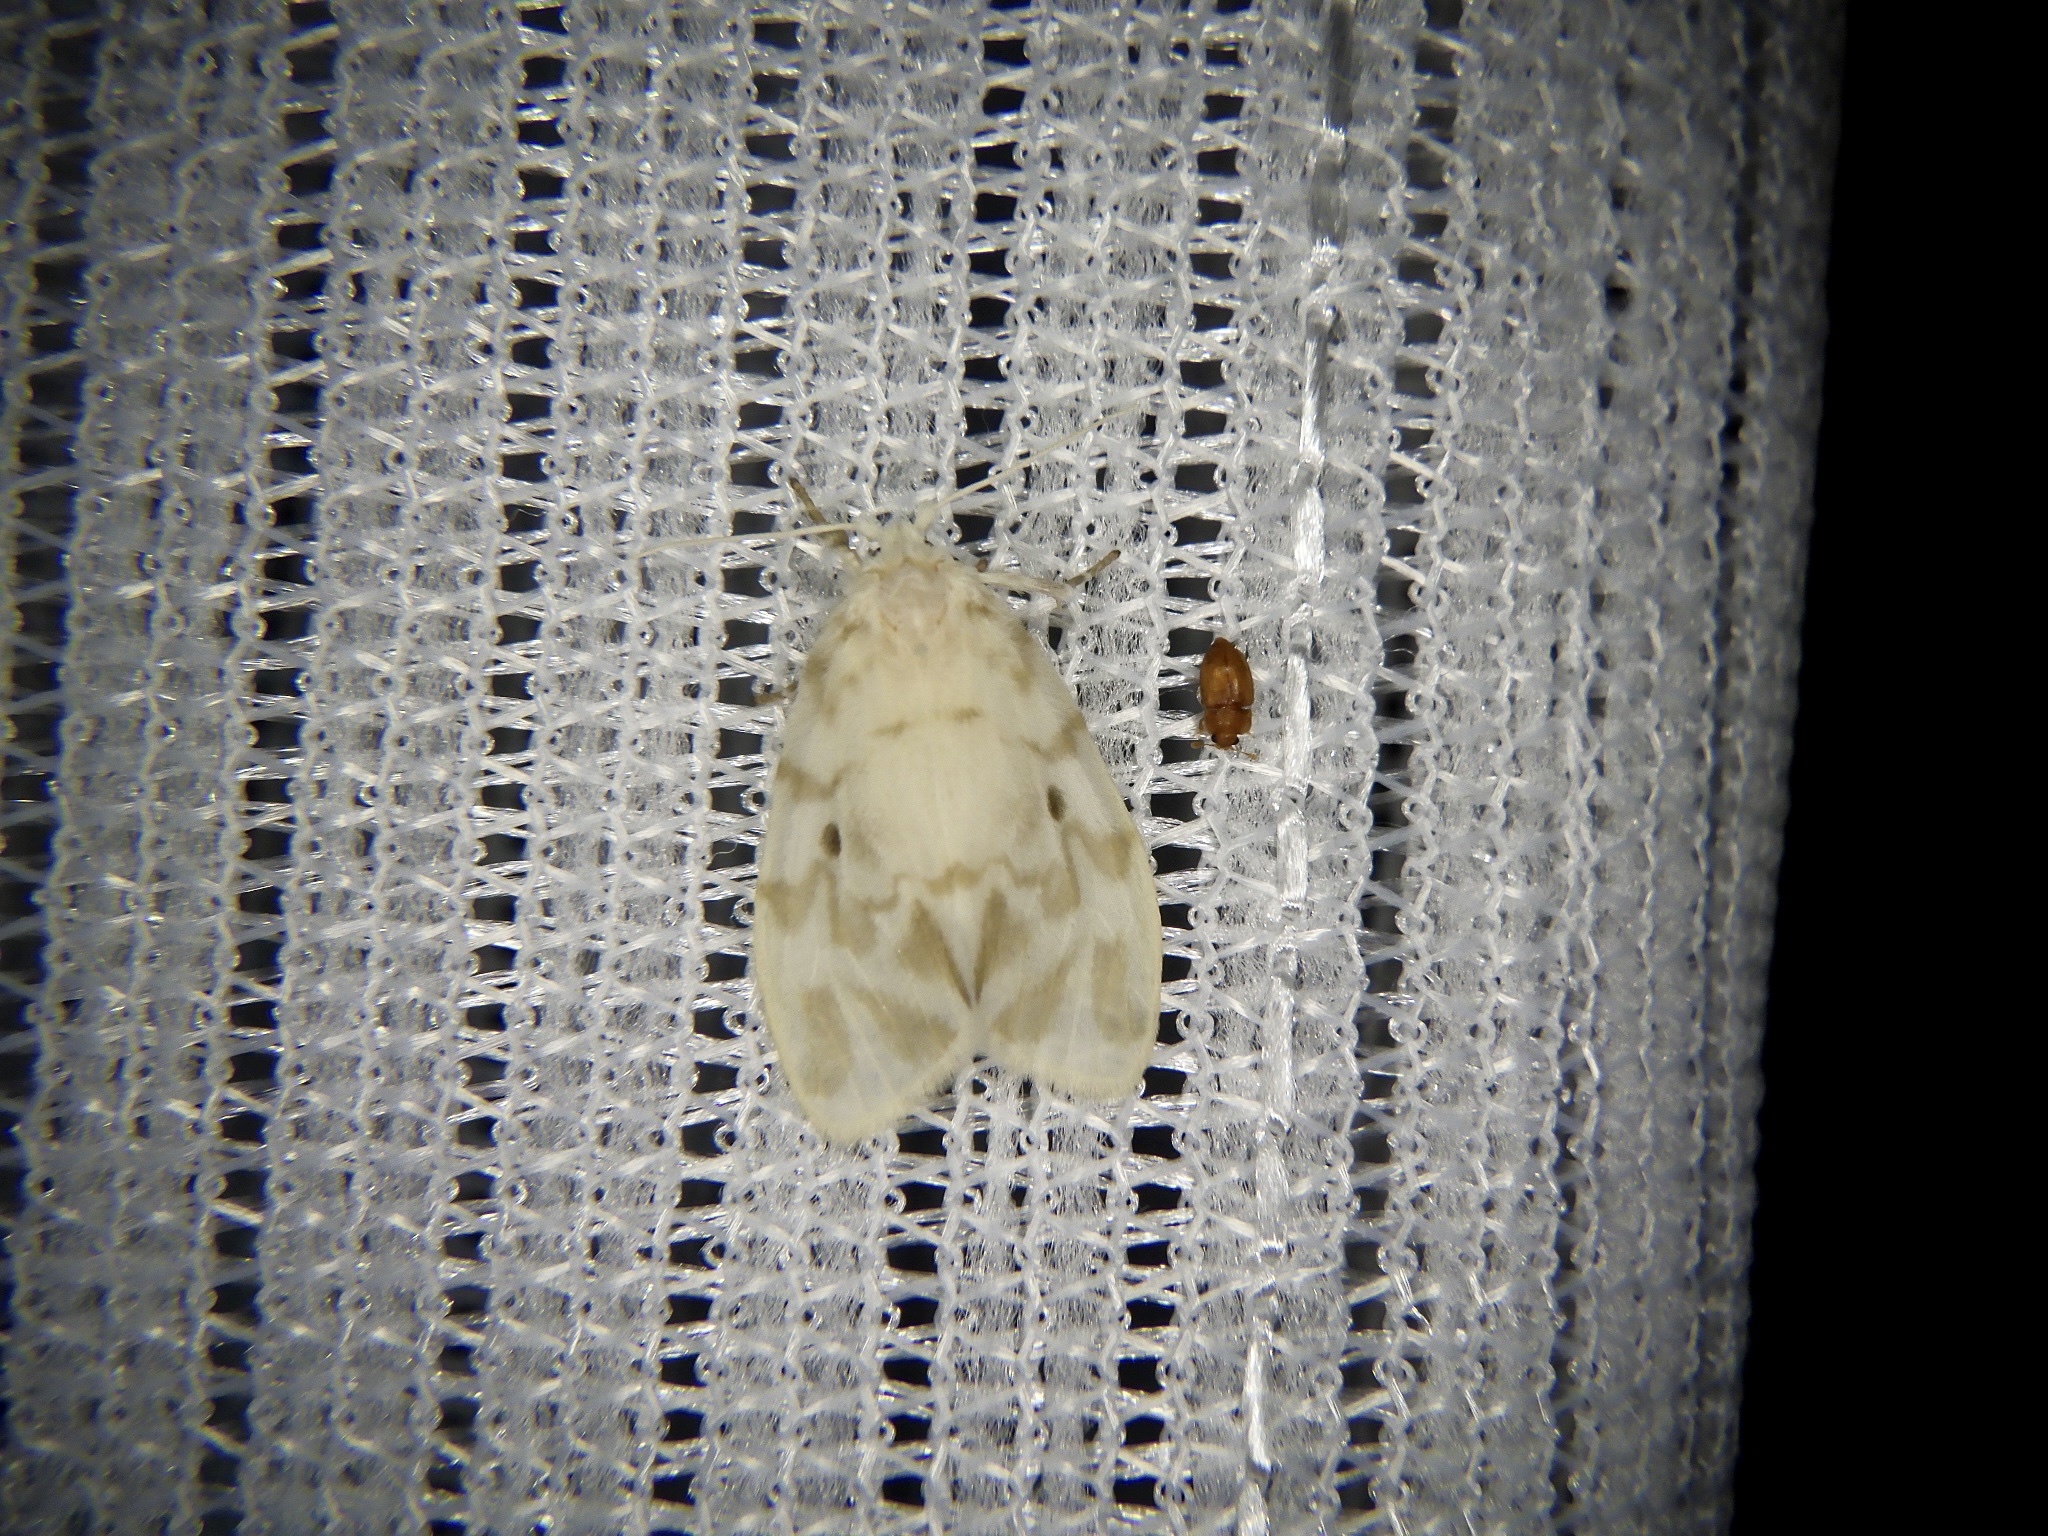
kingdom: Animalia
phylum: Arthropoda
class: Insecta
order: Lepidoptera
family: Erebidae
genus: Nudaria
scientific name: Nudaria ranruna
